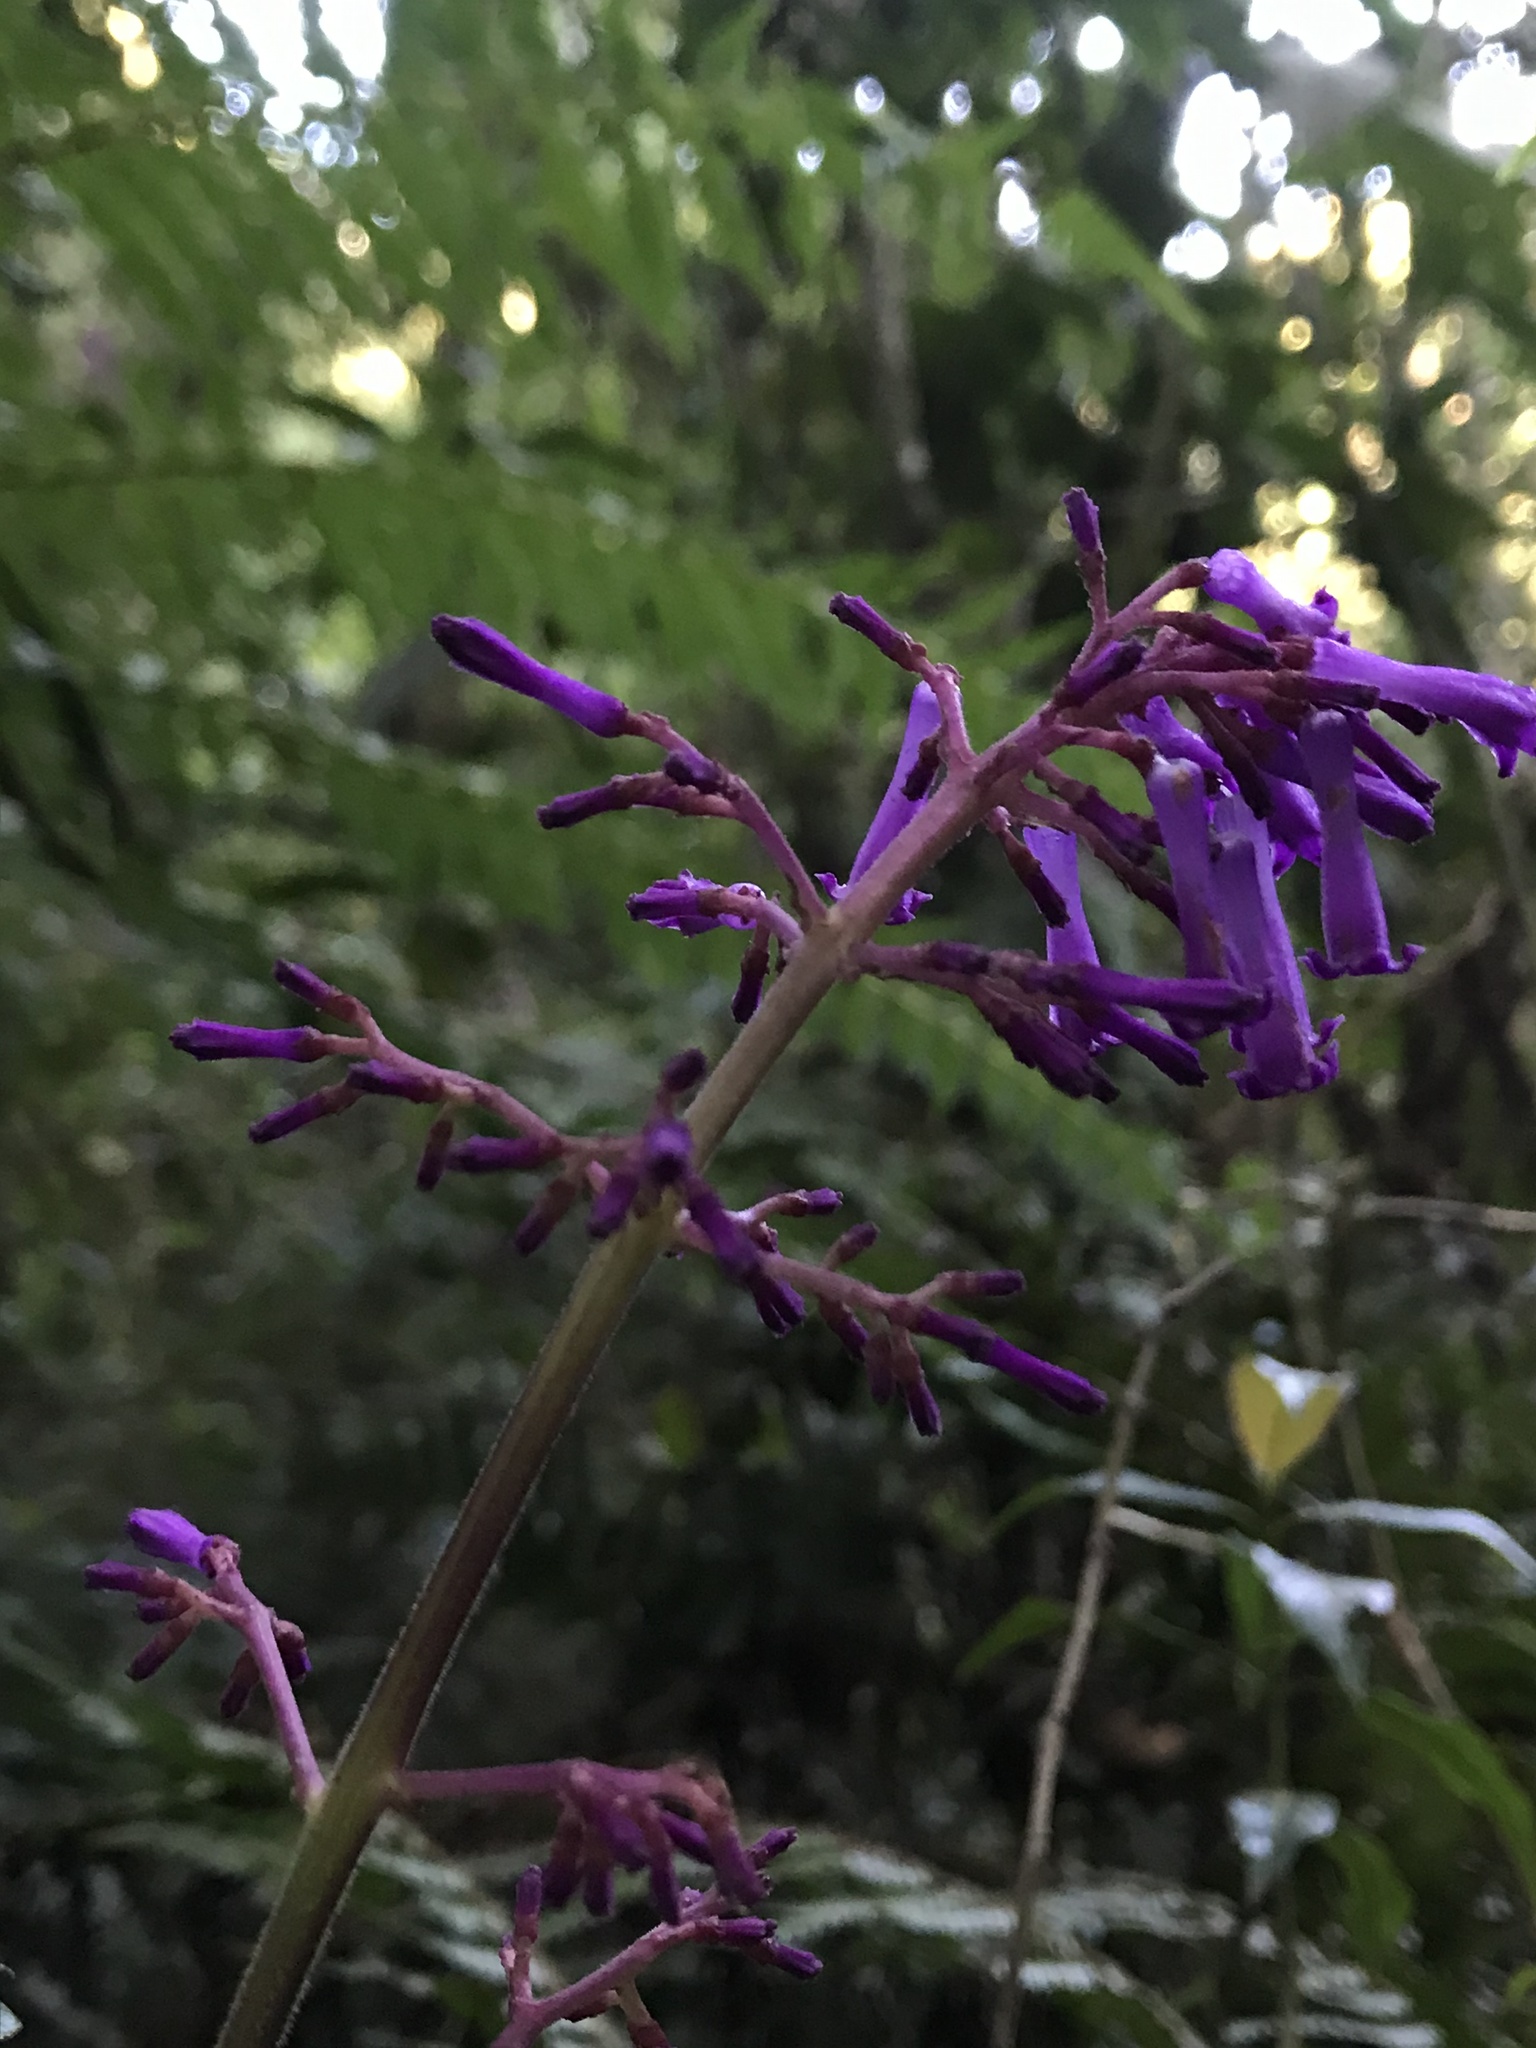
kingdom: Plantae
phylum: Tracheophyta
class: Magnoliopsida
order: Gentianales
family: Rubiaceae
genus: Palicourea
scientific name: Palicourea angustifolia
